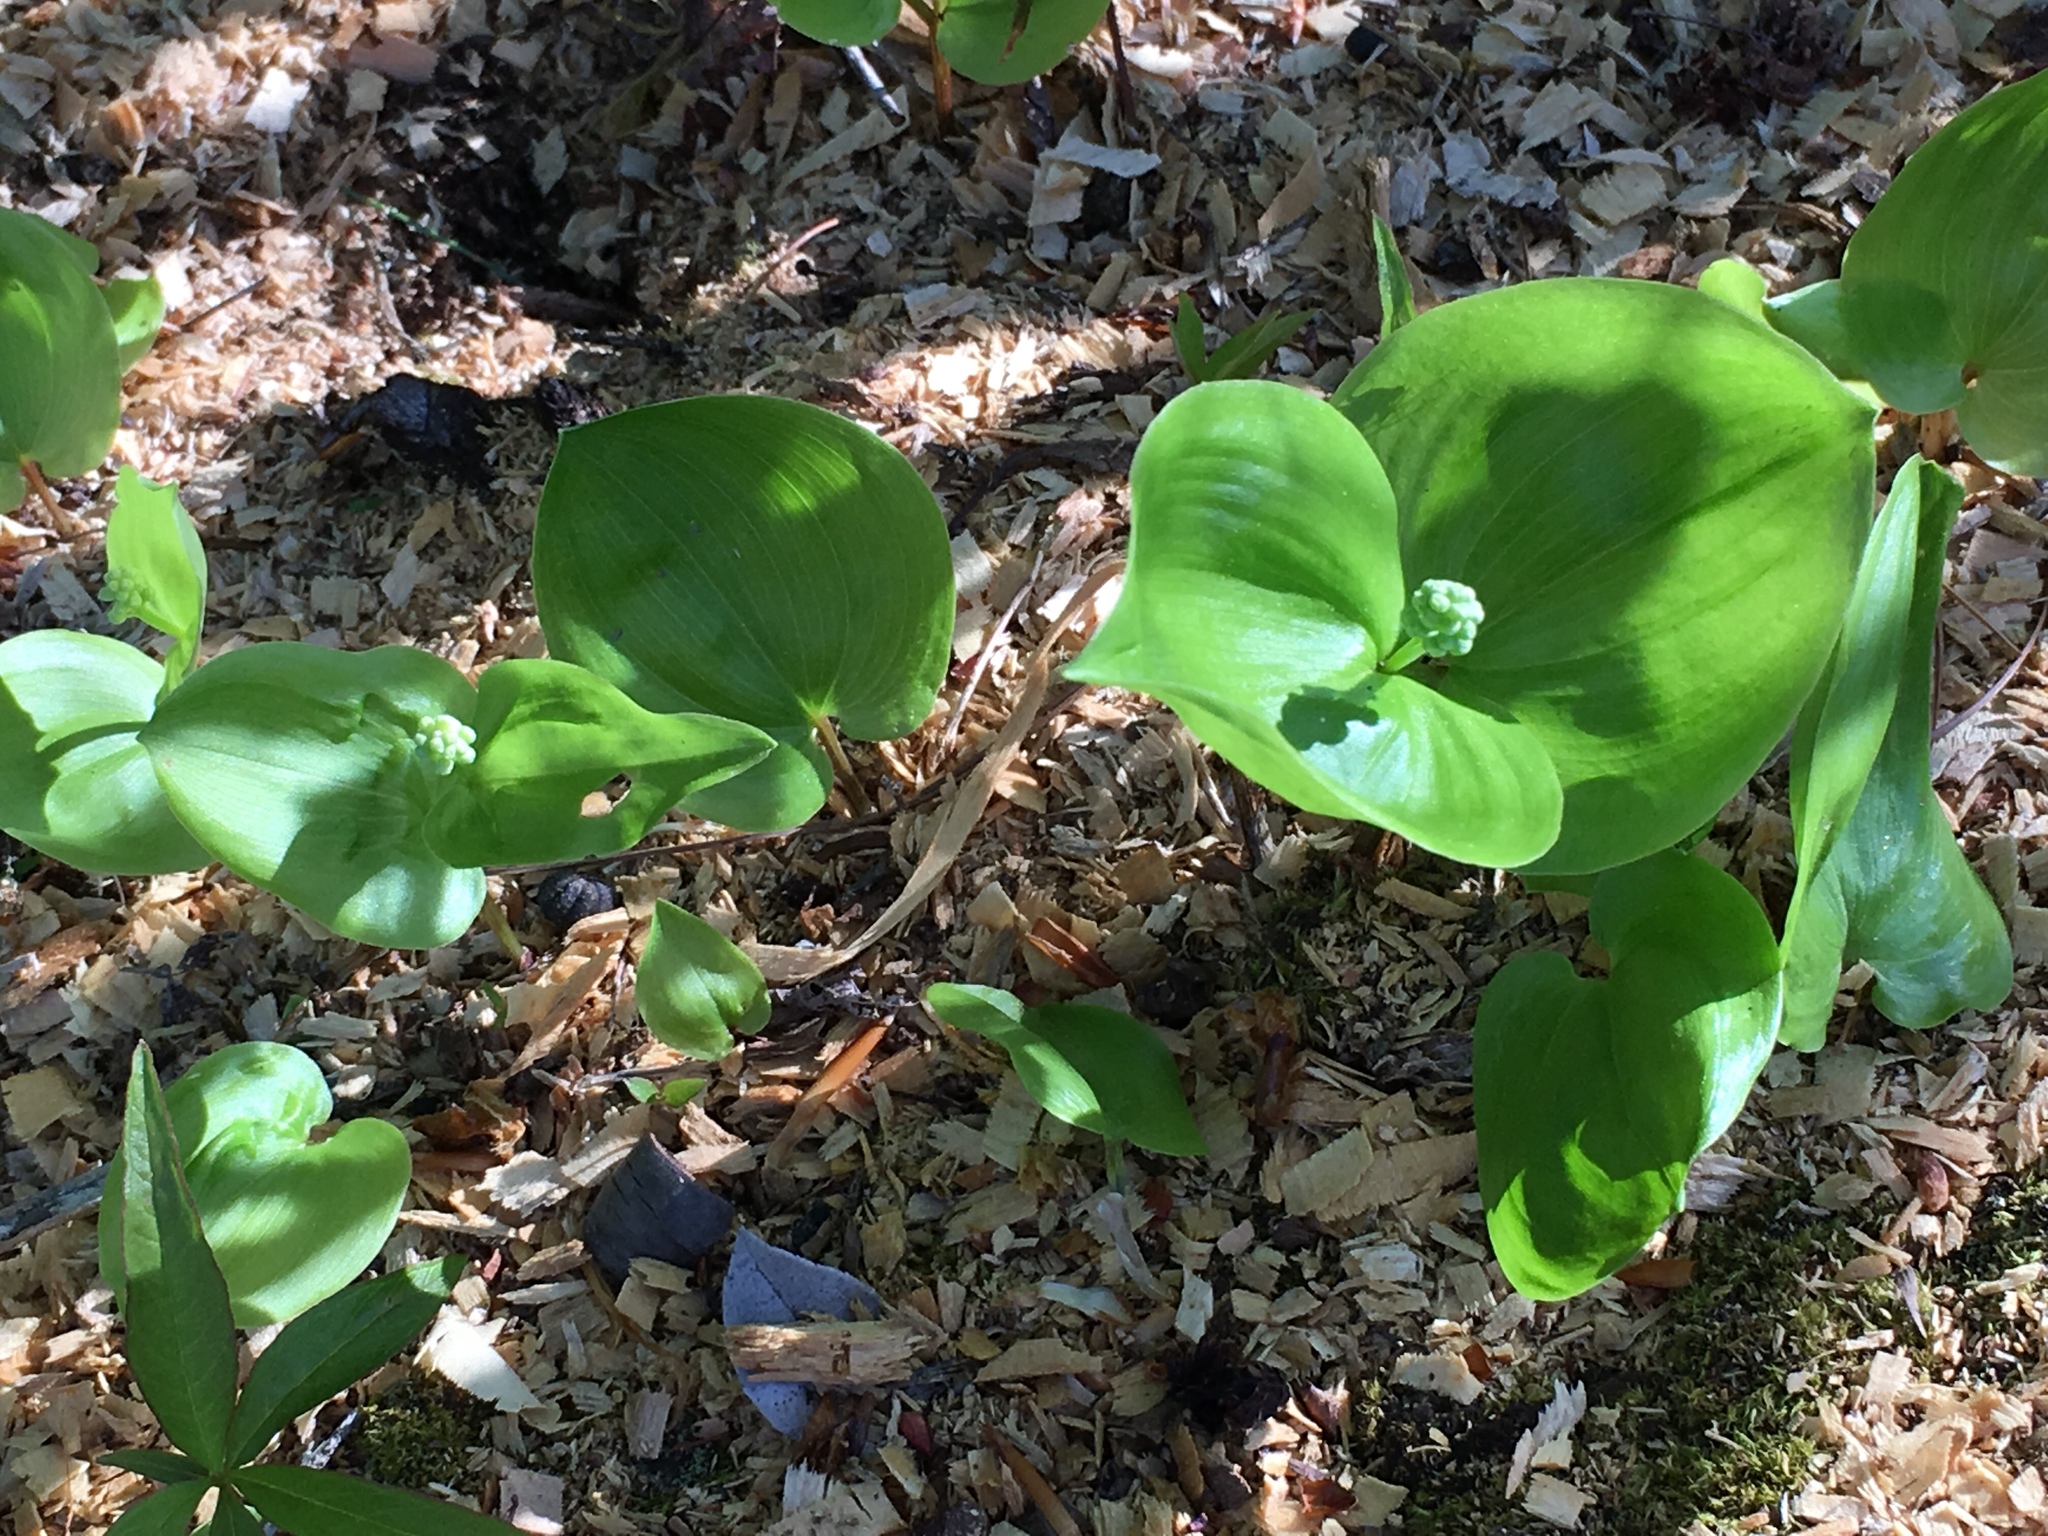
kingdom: Plantae
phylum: Tracheophyta
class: Liliopsida
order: Asparagales
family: Asparagaceae
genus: Maianthemum
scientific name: Maianthemum canadense
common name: False lily-of-the-valley
